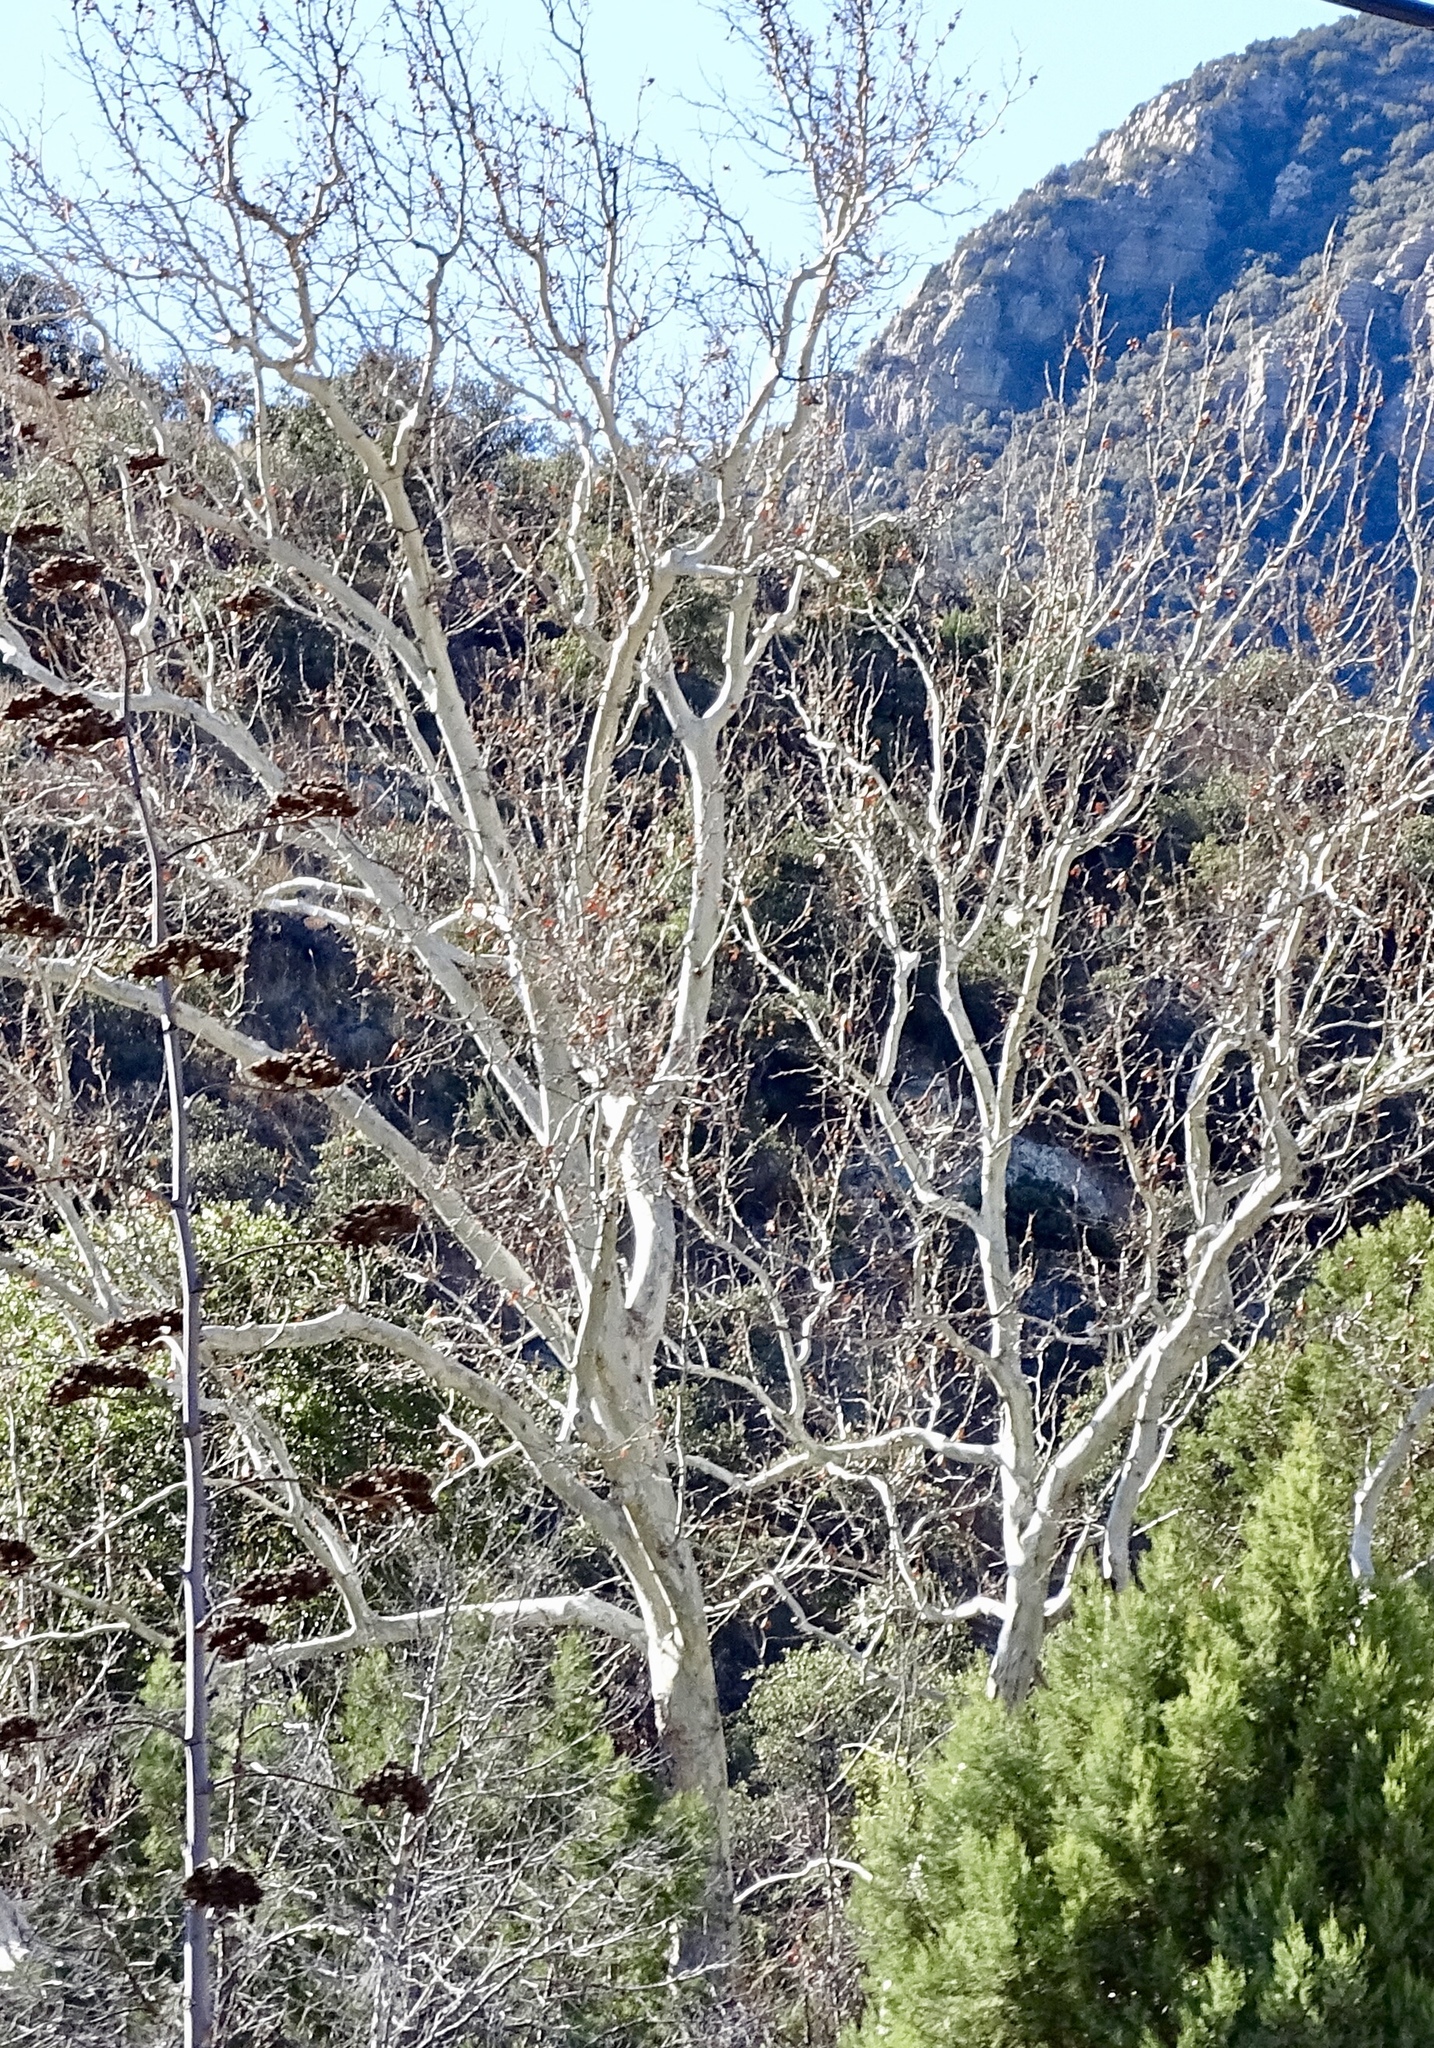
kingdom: Plantae
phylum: Tracheophyta
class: Magnoliopsida
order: Proteales
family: Platanaceae
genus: Platanus
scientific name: Platanus wrightii
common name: Arizona sycamore
